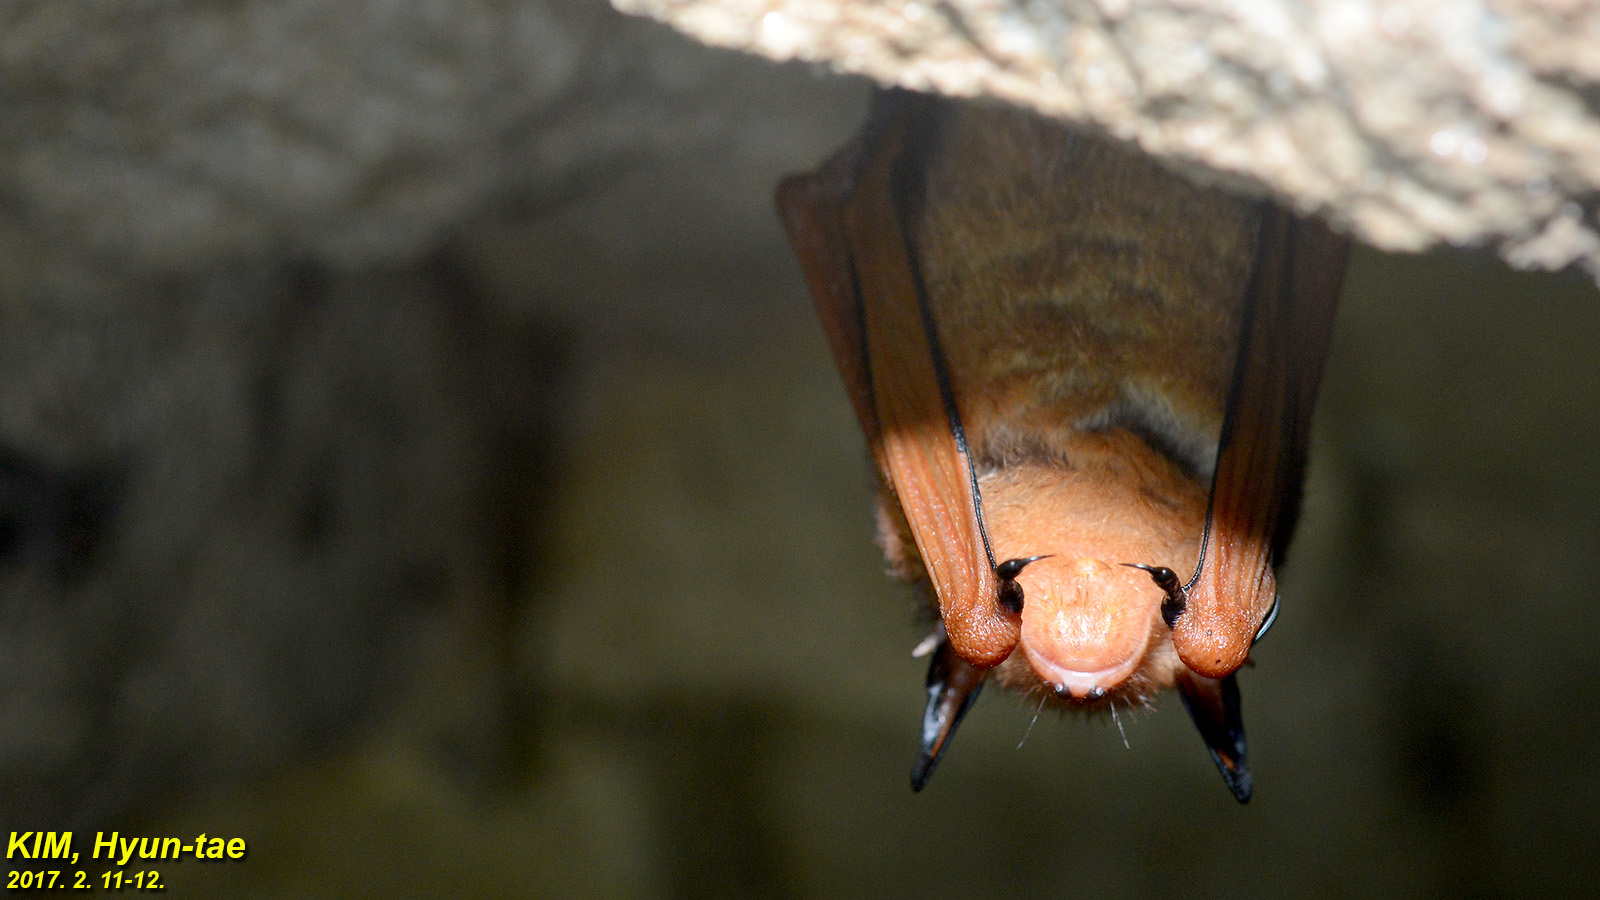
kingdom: Animalia
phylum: Chordata
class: Mammalia
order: Chiroptera
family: Vespertilionidae
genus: Myotis
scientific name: Myotis rufoniger
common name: Black-winged myotis
